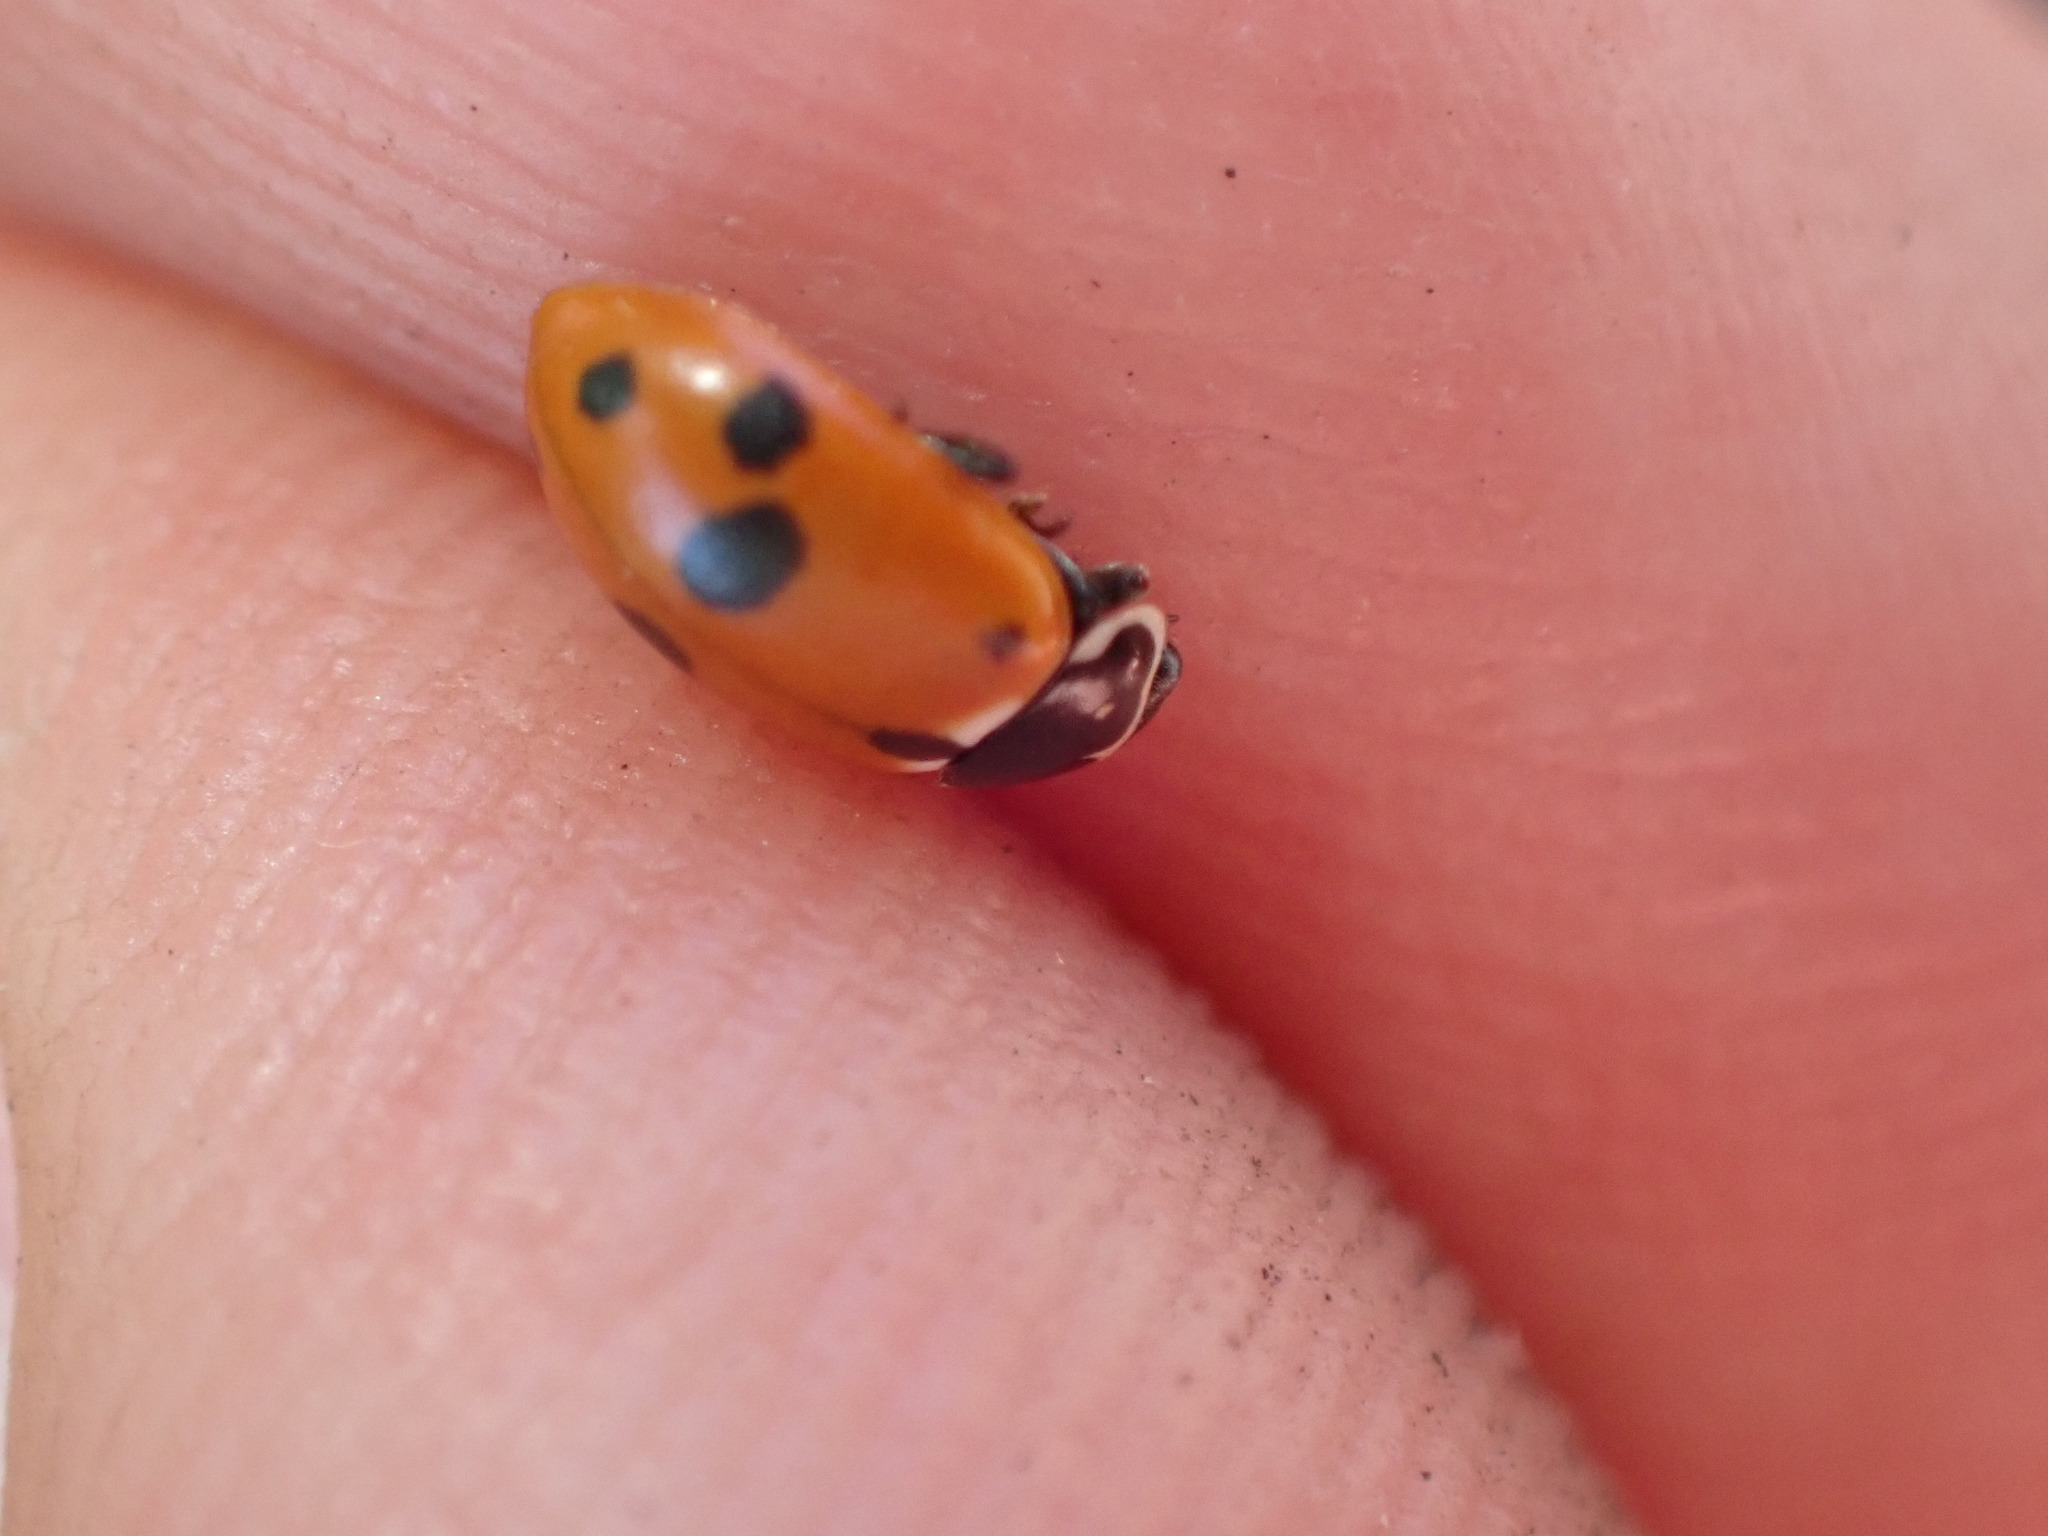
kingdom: Animalia
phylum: Arthropoda
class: Insecta
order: Coleoptera
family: Coccinellidae
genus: Hippodamia
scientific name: Hippodamia variegata
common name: Ladybird beetle
